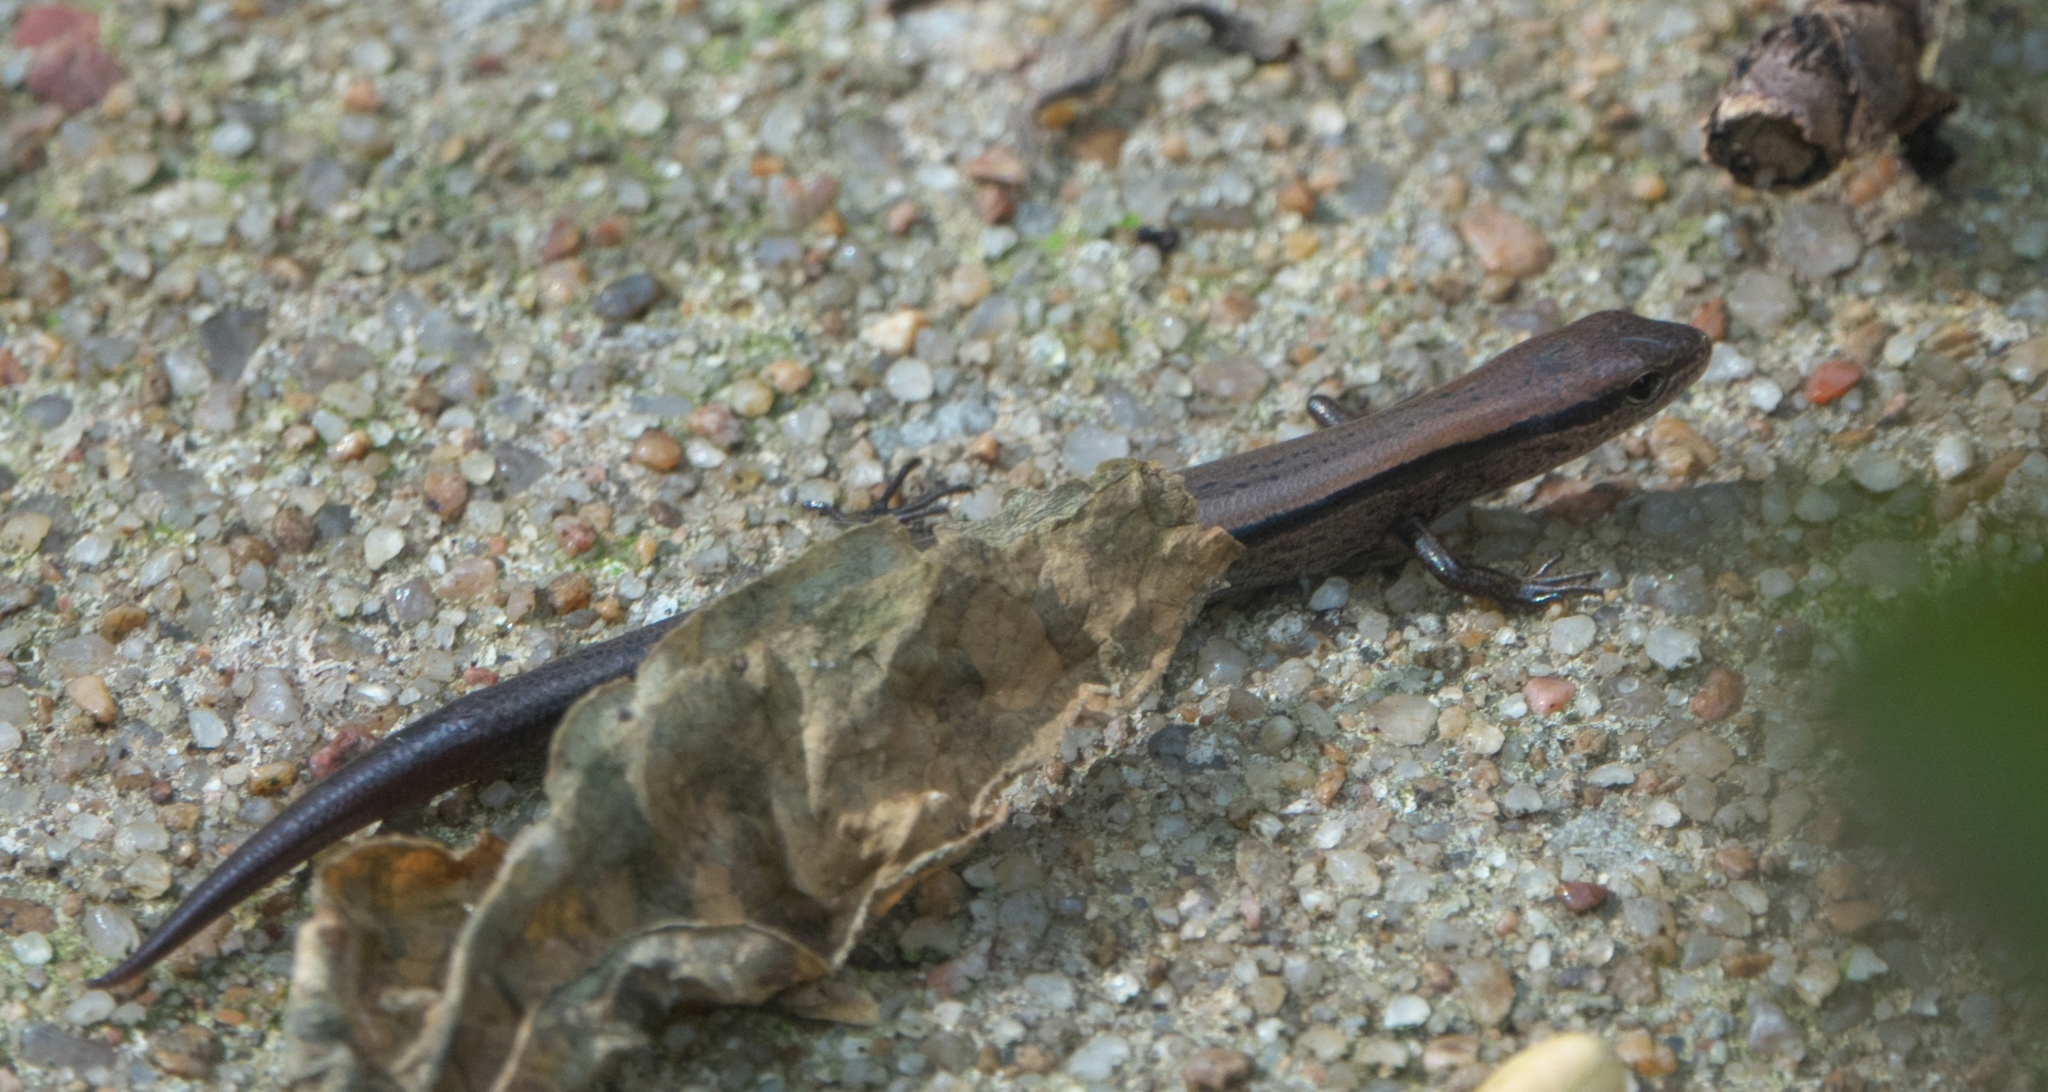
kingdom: Animalia
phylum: Chordata
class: Squamata
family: Scincidae
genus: Scincella
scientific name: Scincella lateralis
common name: Ground skink
